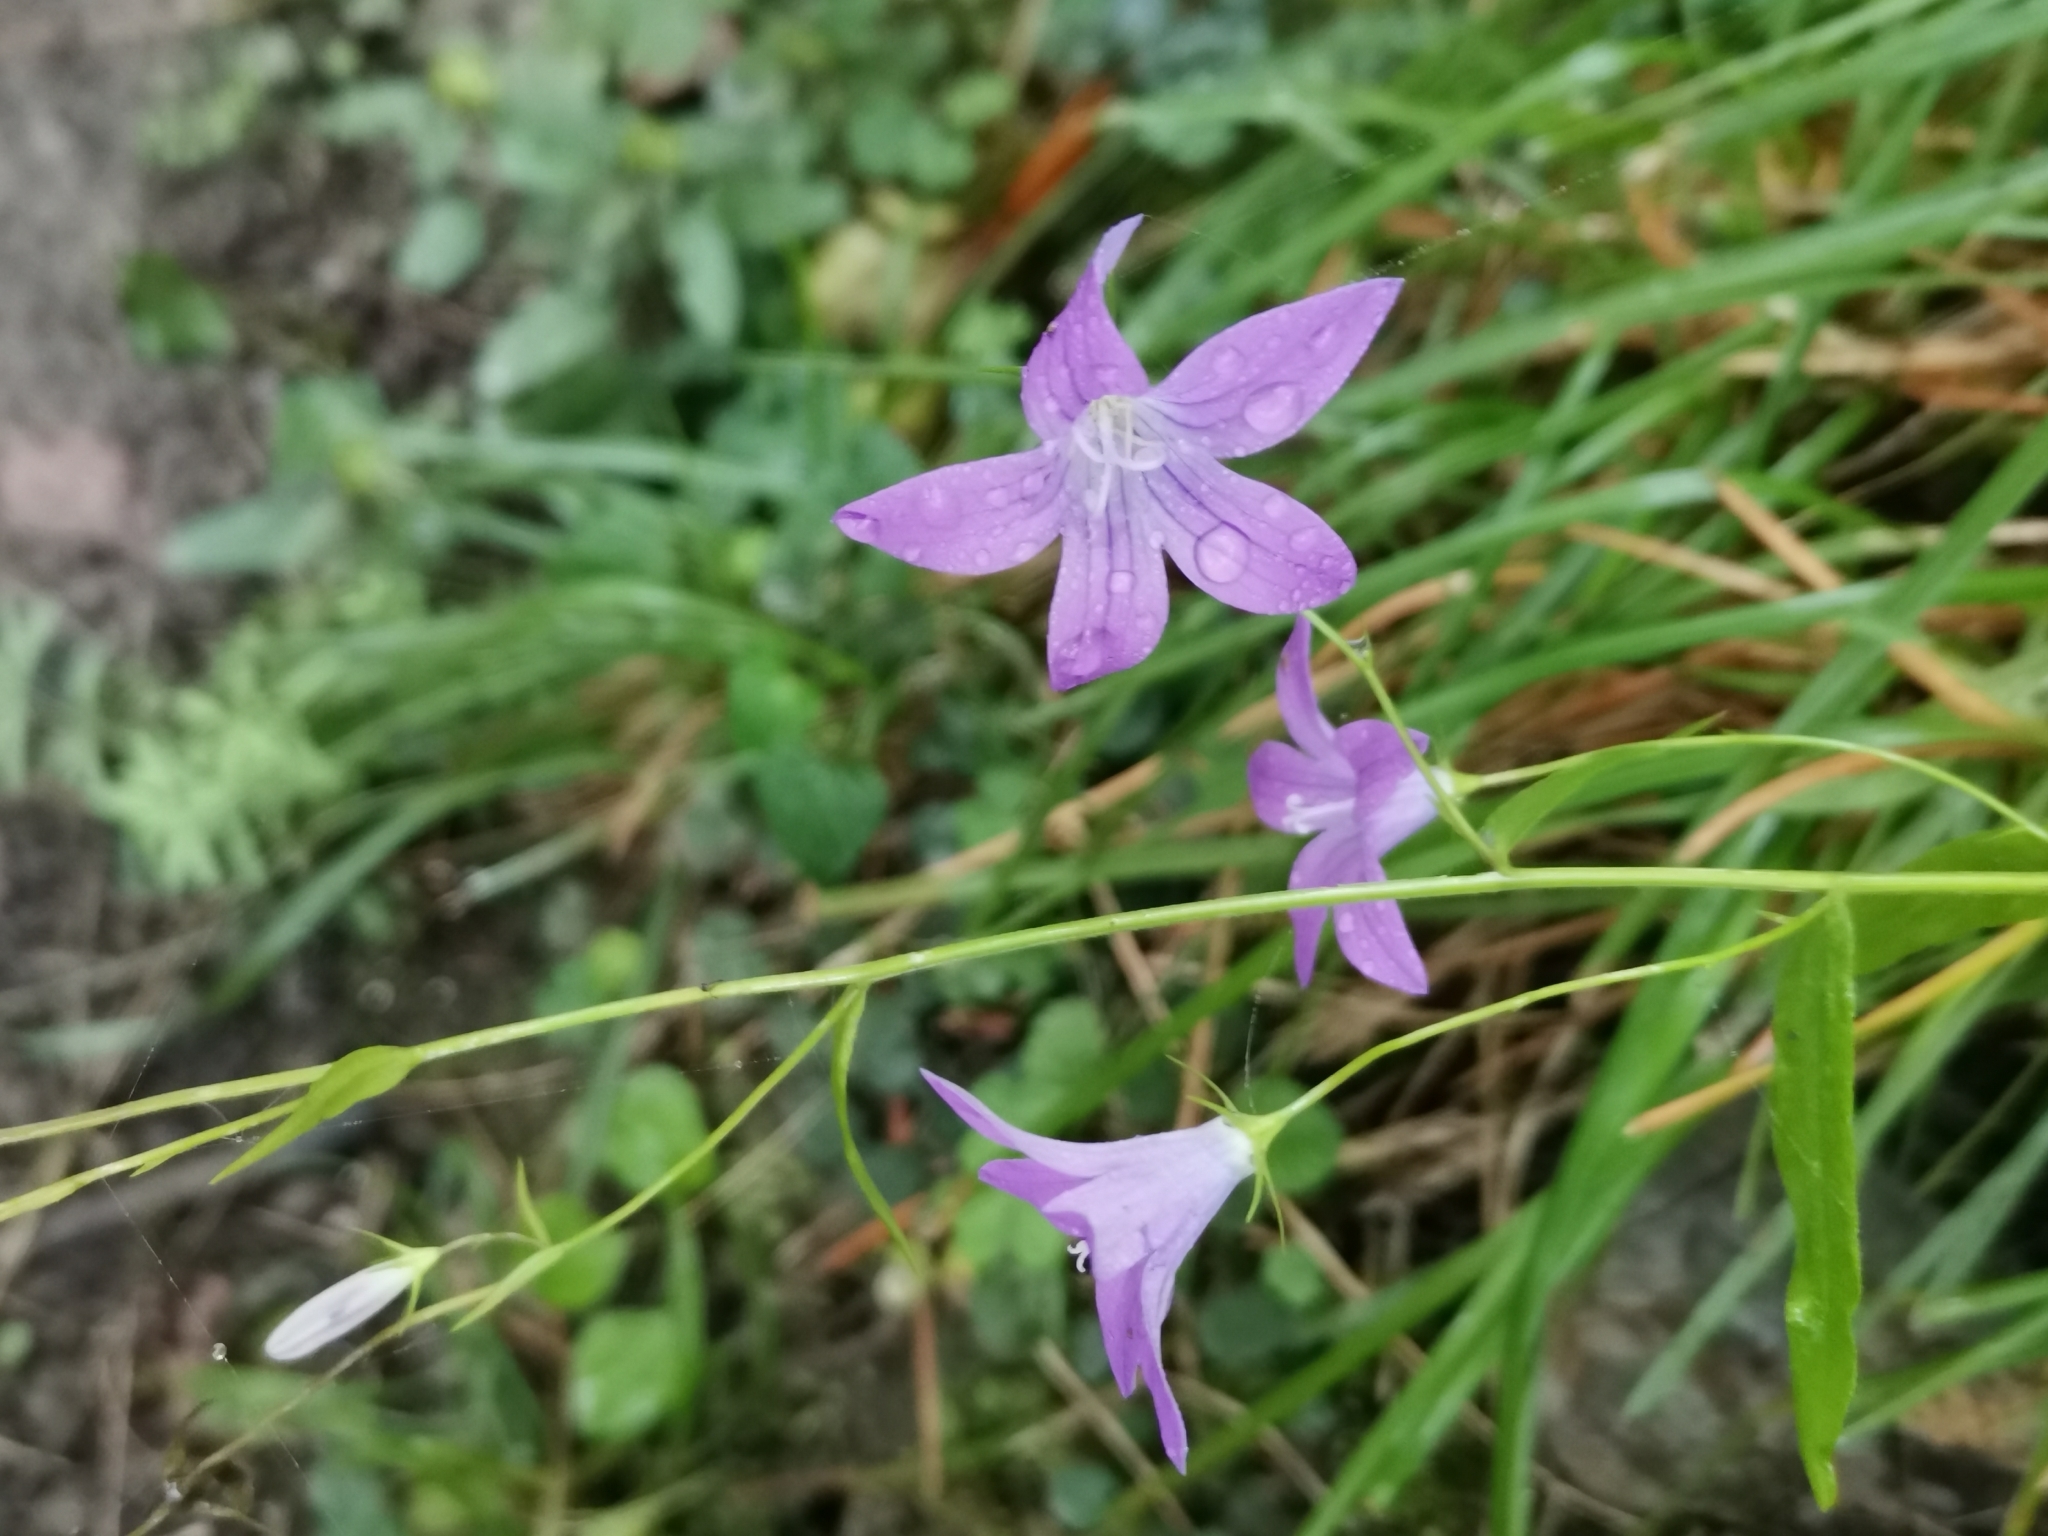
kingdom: Plantae
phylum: Tracheophyta
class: Magnoliopsida
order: Asterales
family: Campanulaceae
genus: Campanula
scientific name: Campanula patula
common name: Spreading bellflower
